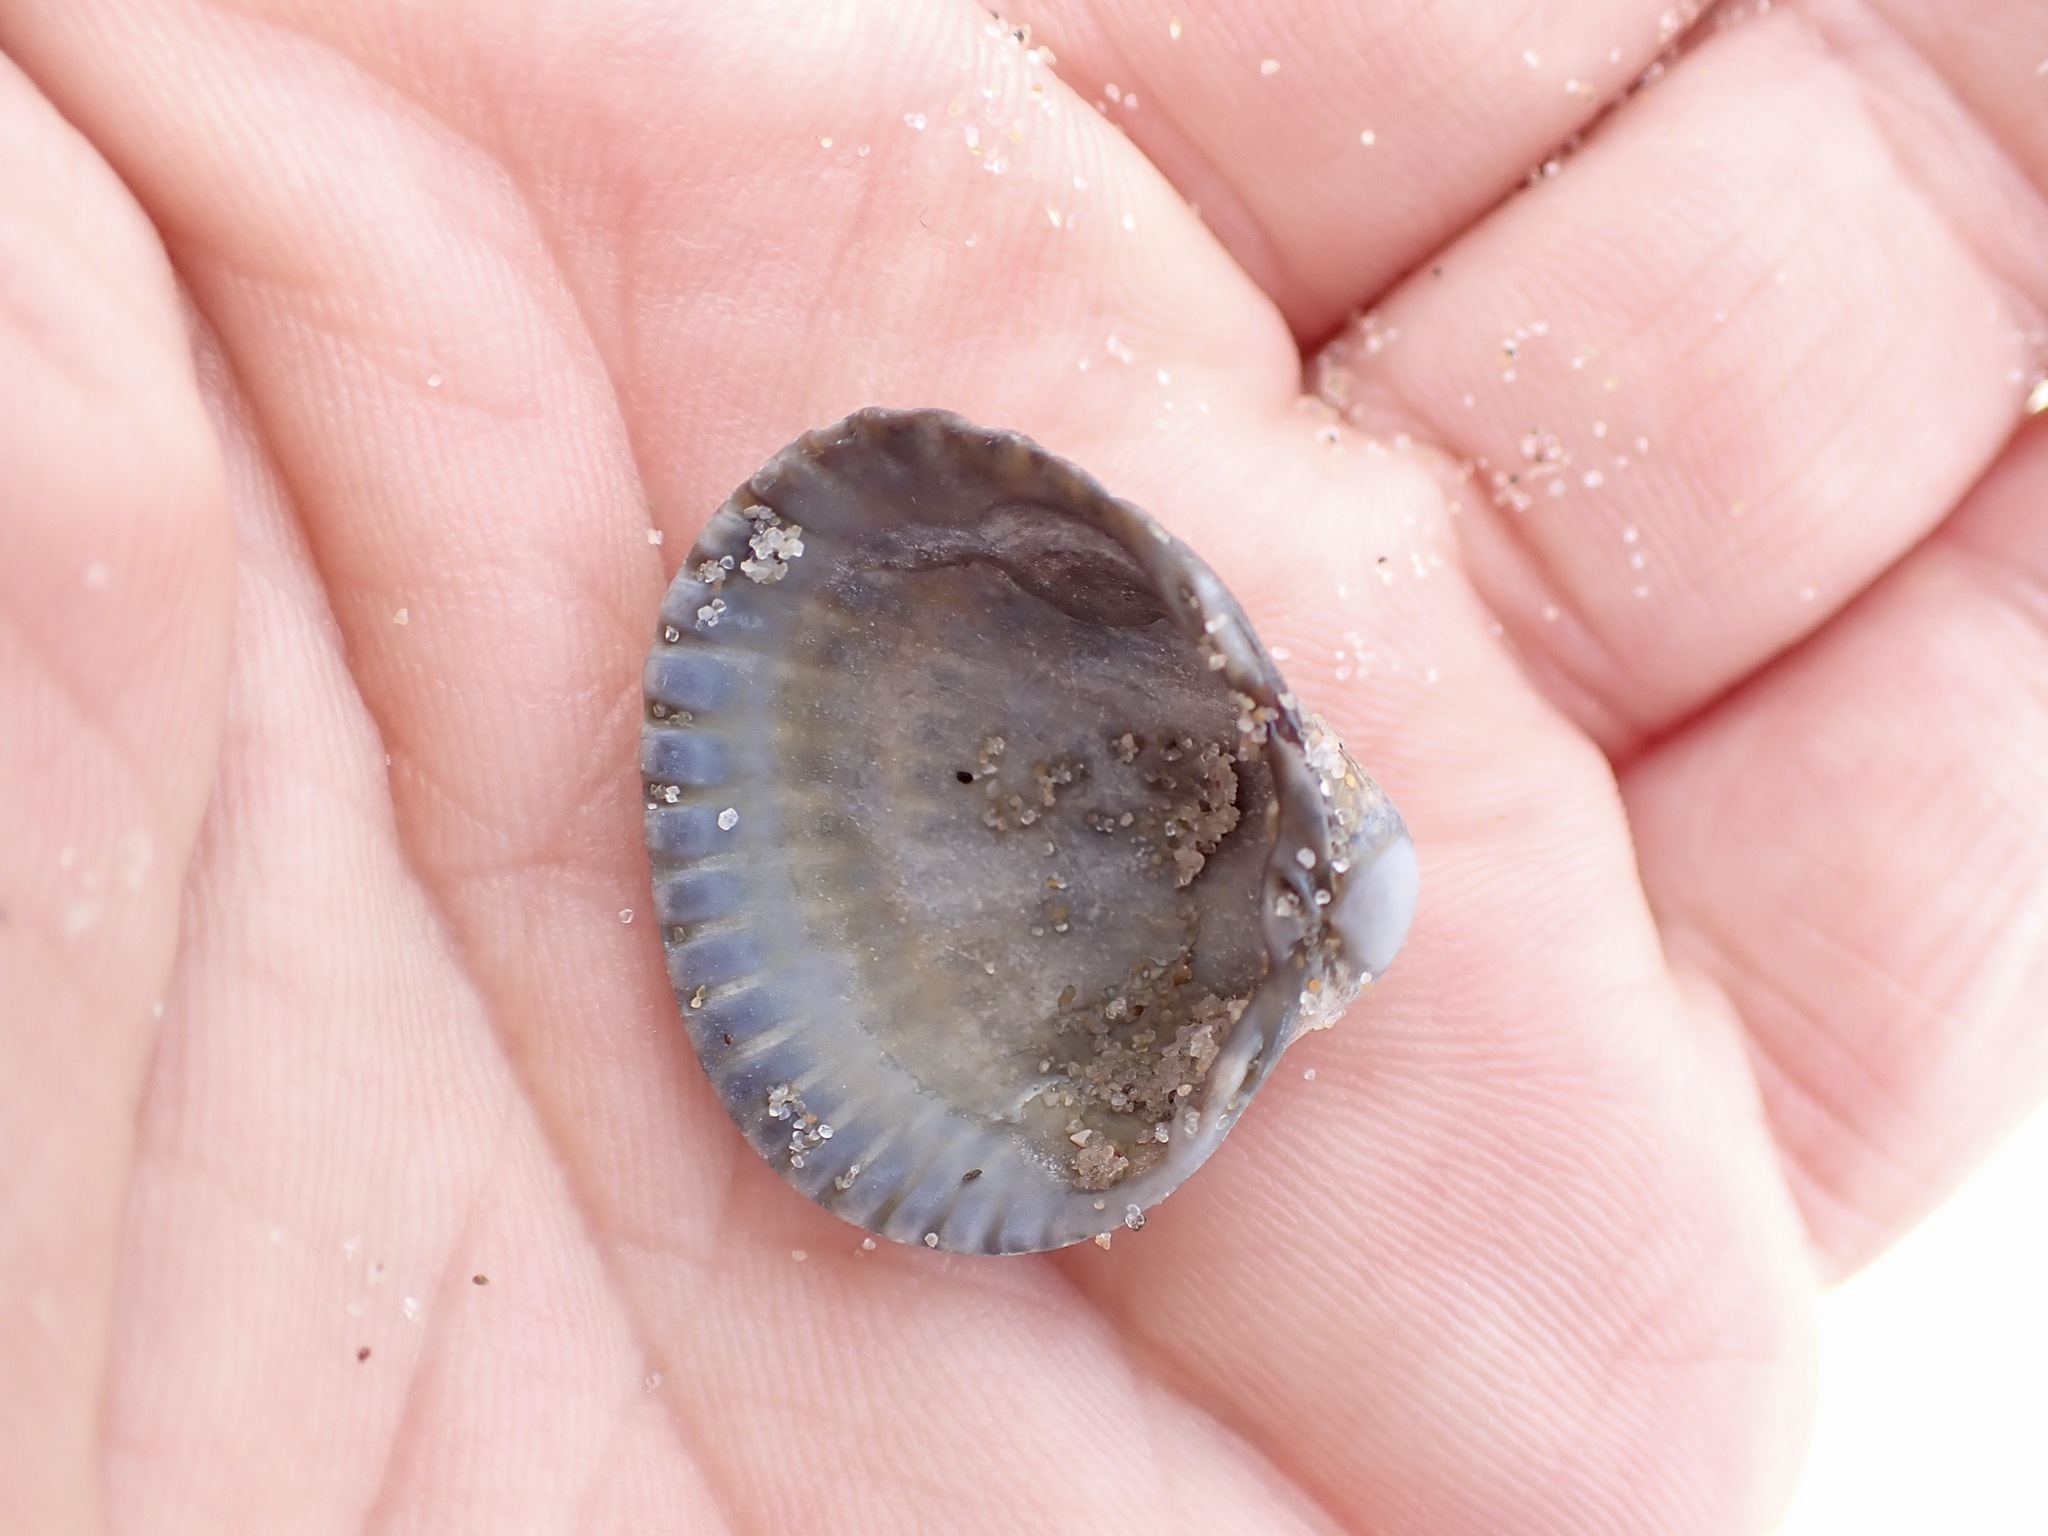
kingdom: Animalia
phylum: Mollusca
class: Bivalvia
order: Cardiida
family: Cardiidae
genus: Cerastoderma
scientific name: Cerastoderma edule
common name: Common cockle
